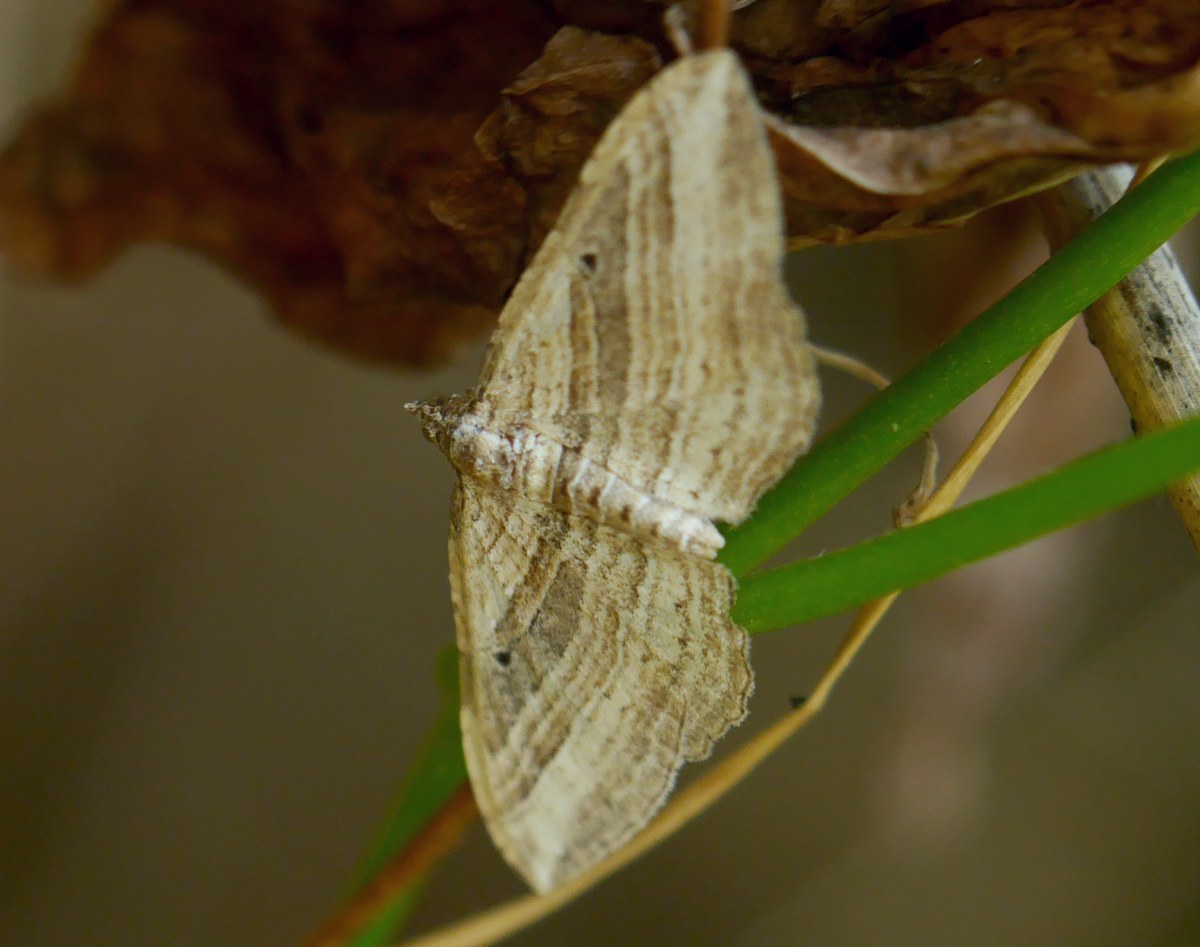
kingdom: Animalia
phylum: Arthropoda
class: Insecta
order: Lepidoptera
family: Geometridae
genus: Costaconvexa
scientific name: Costaconvexa polygrammata
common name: Many-lined
